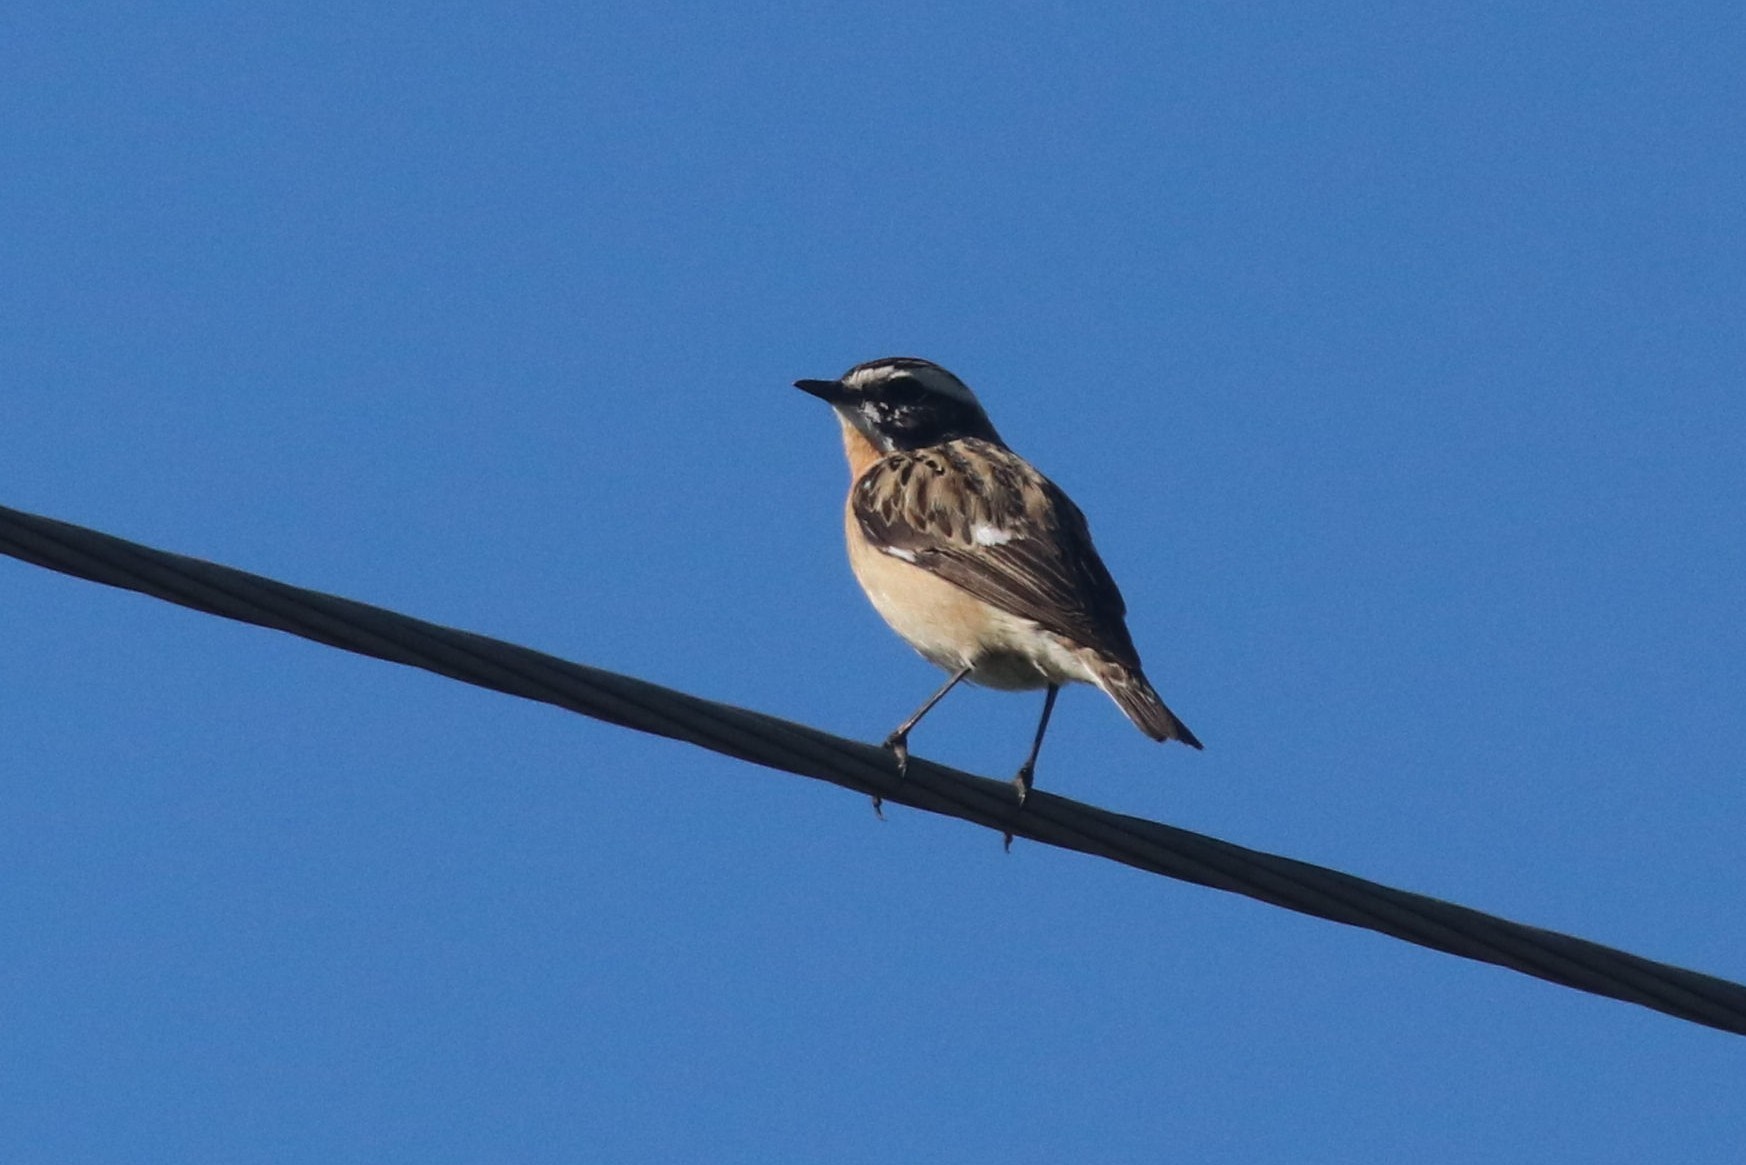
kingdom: Animalia
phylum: Chordata
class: Aves
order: Passeriformes
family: Muscicapidae
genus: Saxicola
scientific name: Saxicola rubetra
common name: Whinchat
